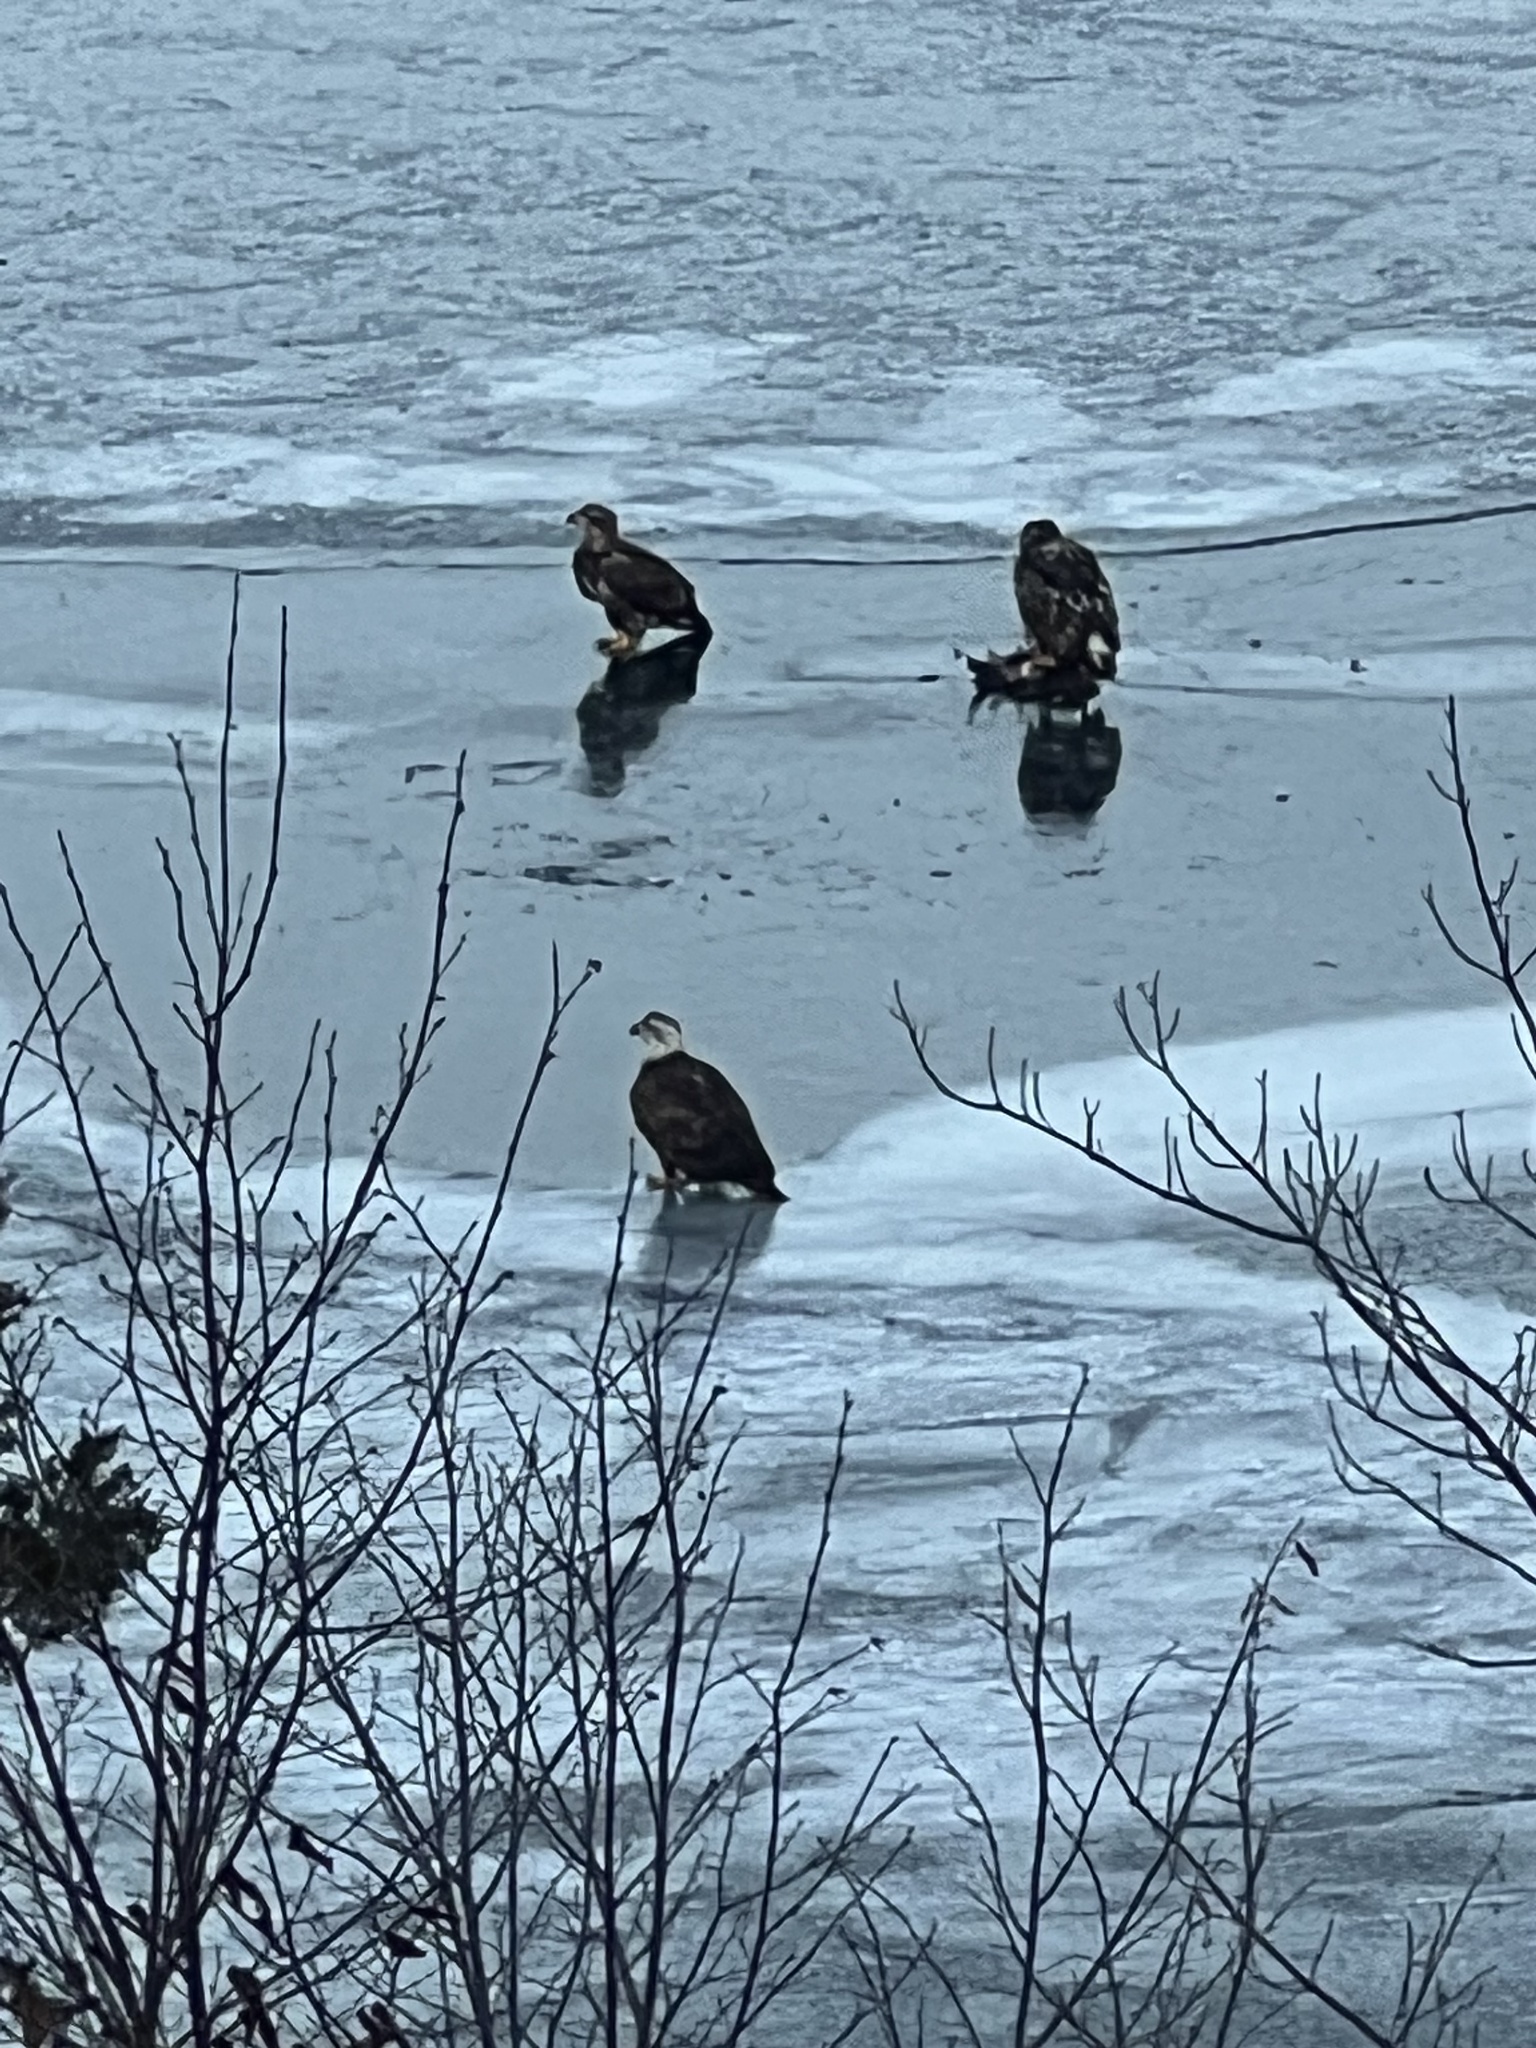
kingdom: Animalia
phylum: Chordata
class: Aves
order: Accipitriformes
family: Accipitridae
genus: Haliaeetus
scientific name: Haliaeetus leucocephalus
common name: Bald eagle
